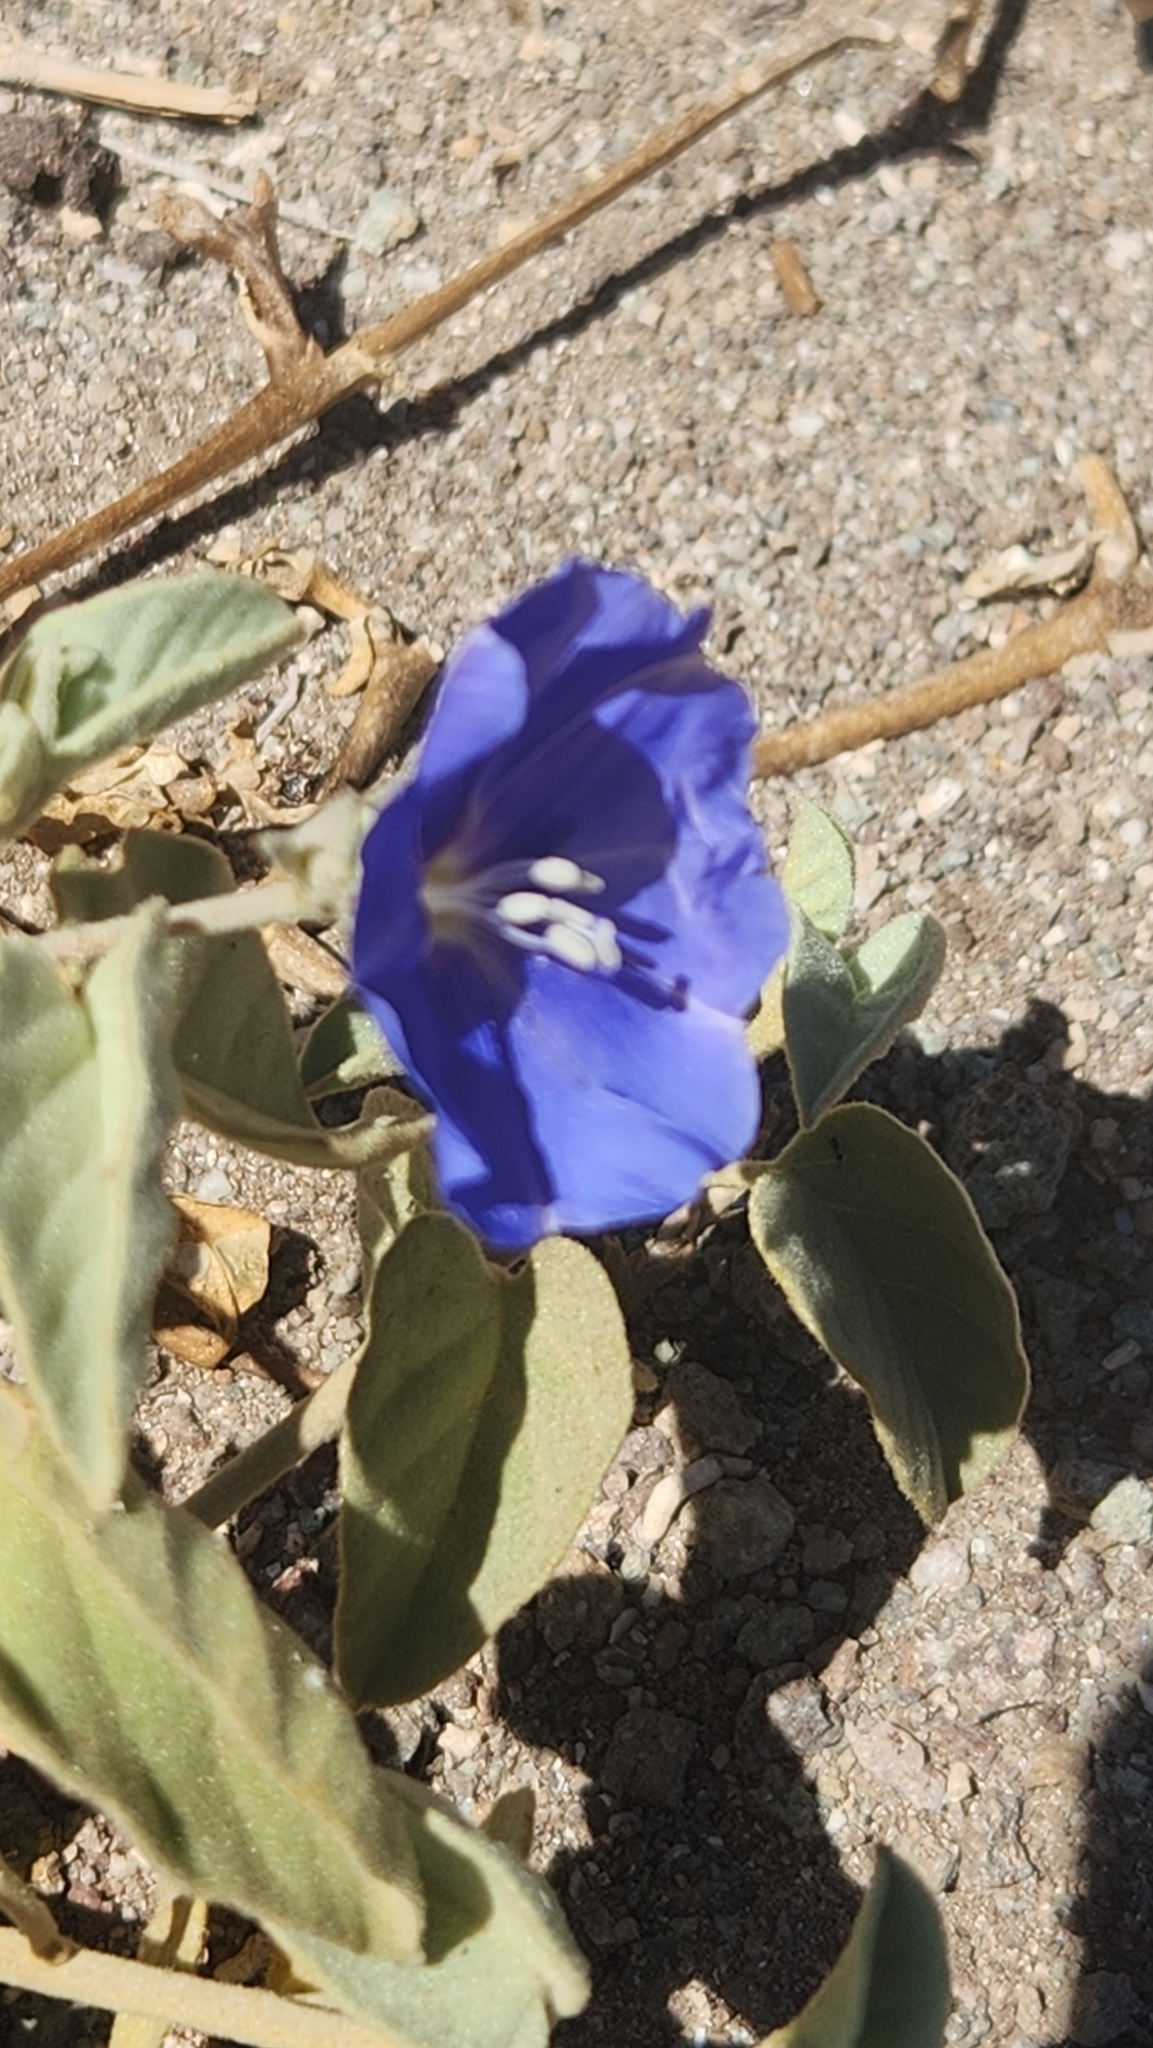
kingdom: Plantae
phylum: Tracheophyta
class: Magnoliopsida
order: Solanales
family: Convolvulaceae
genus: Jacquemontia
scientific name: Jacquemontia abutiloides
